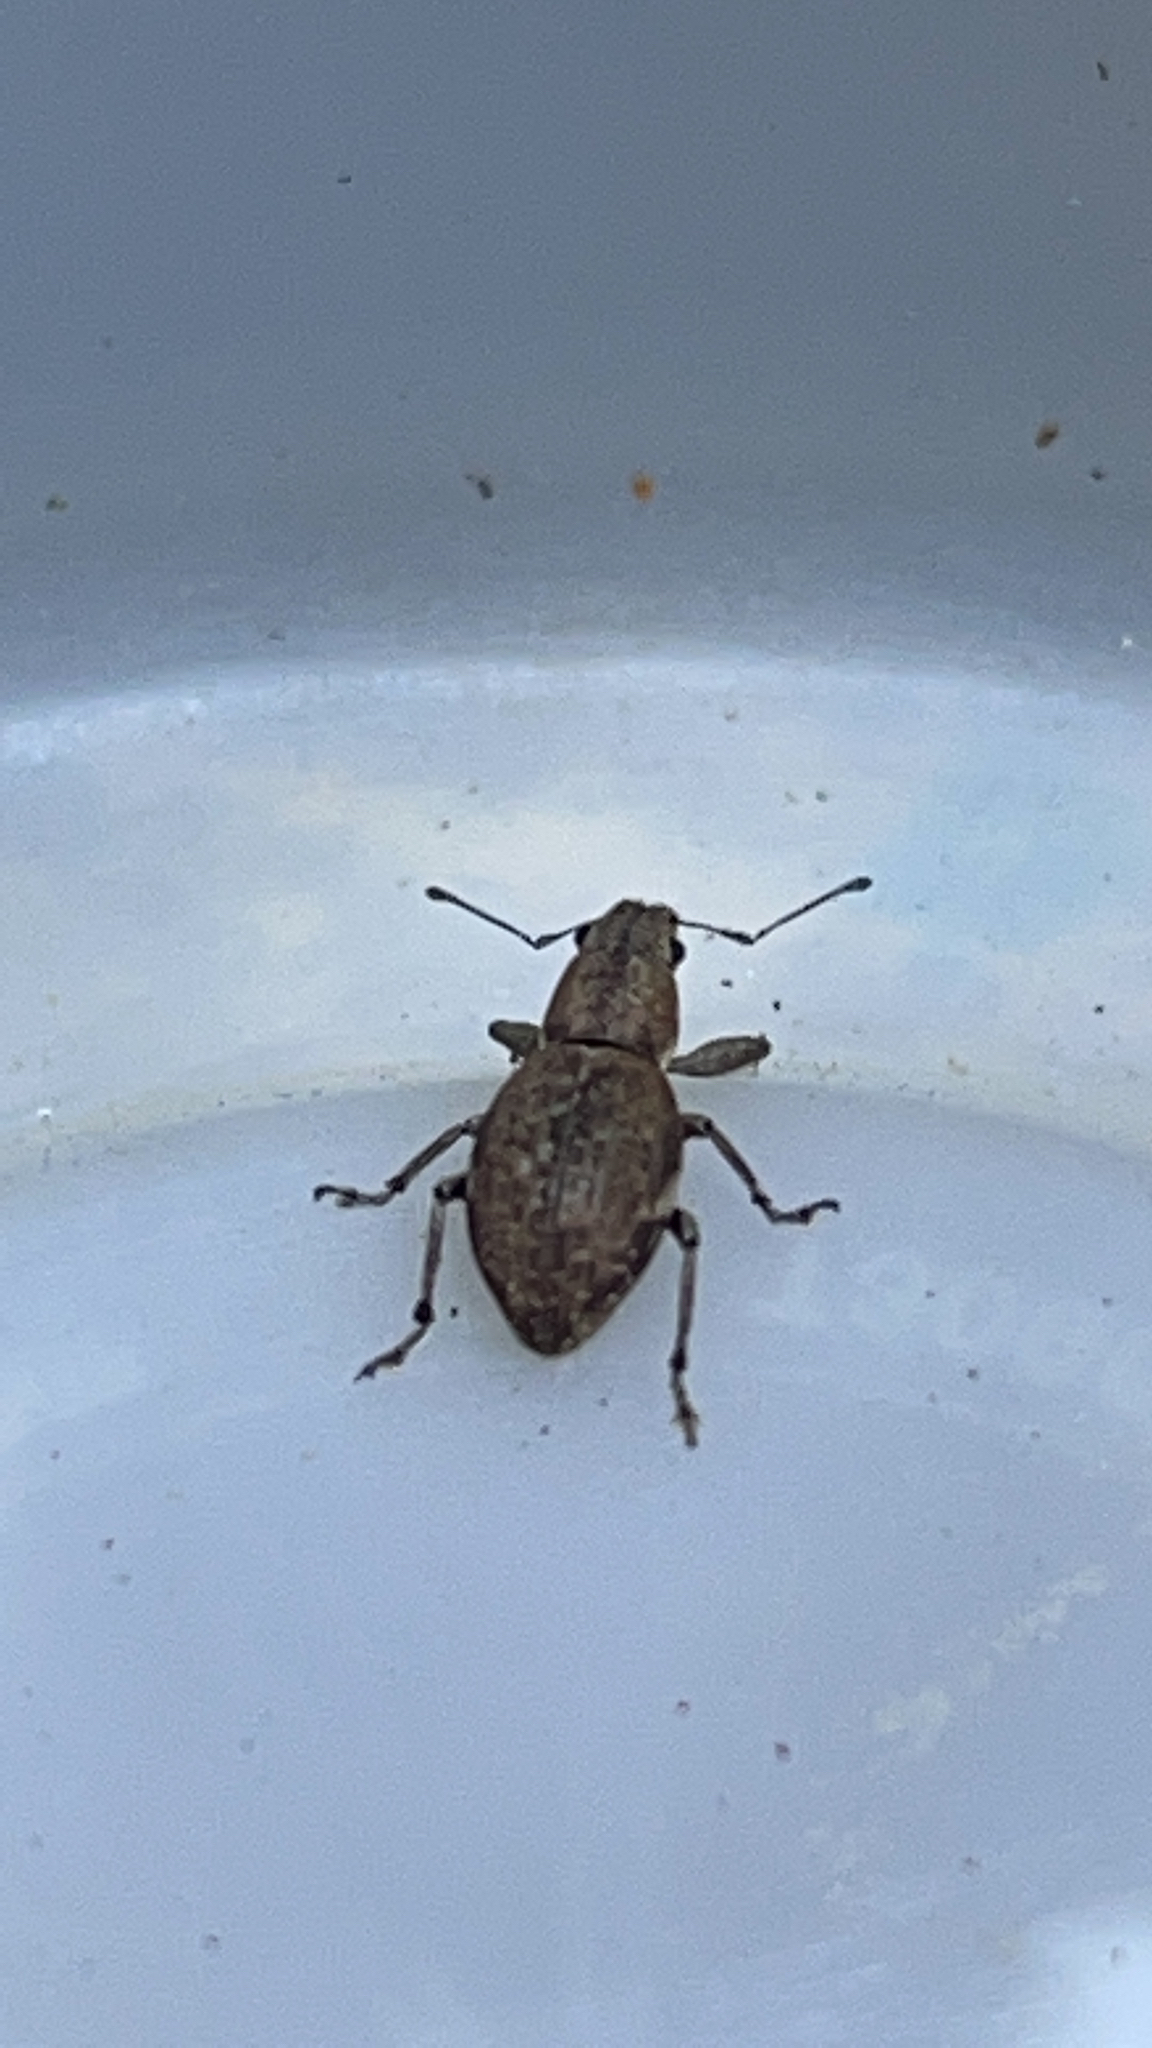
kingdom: Animalia
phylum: Arthropoda
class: Insecta
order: Coleoptera
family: Curculionidae
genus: Naupactus
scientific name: Naupactus cervinus
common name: Fuller rose beetle
